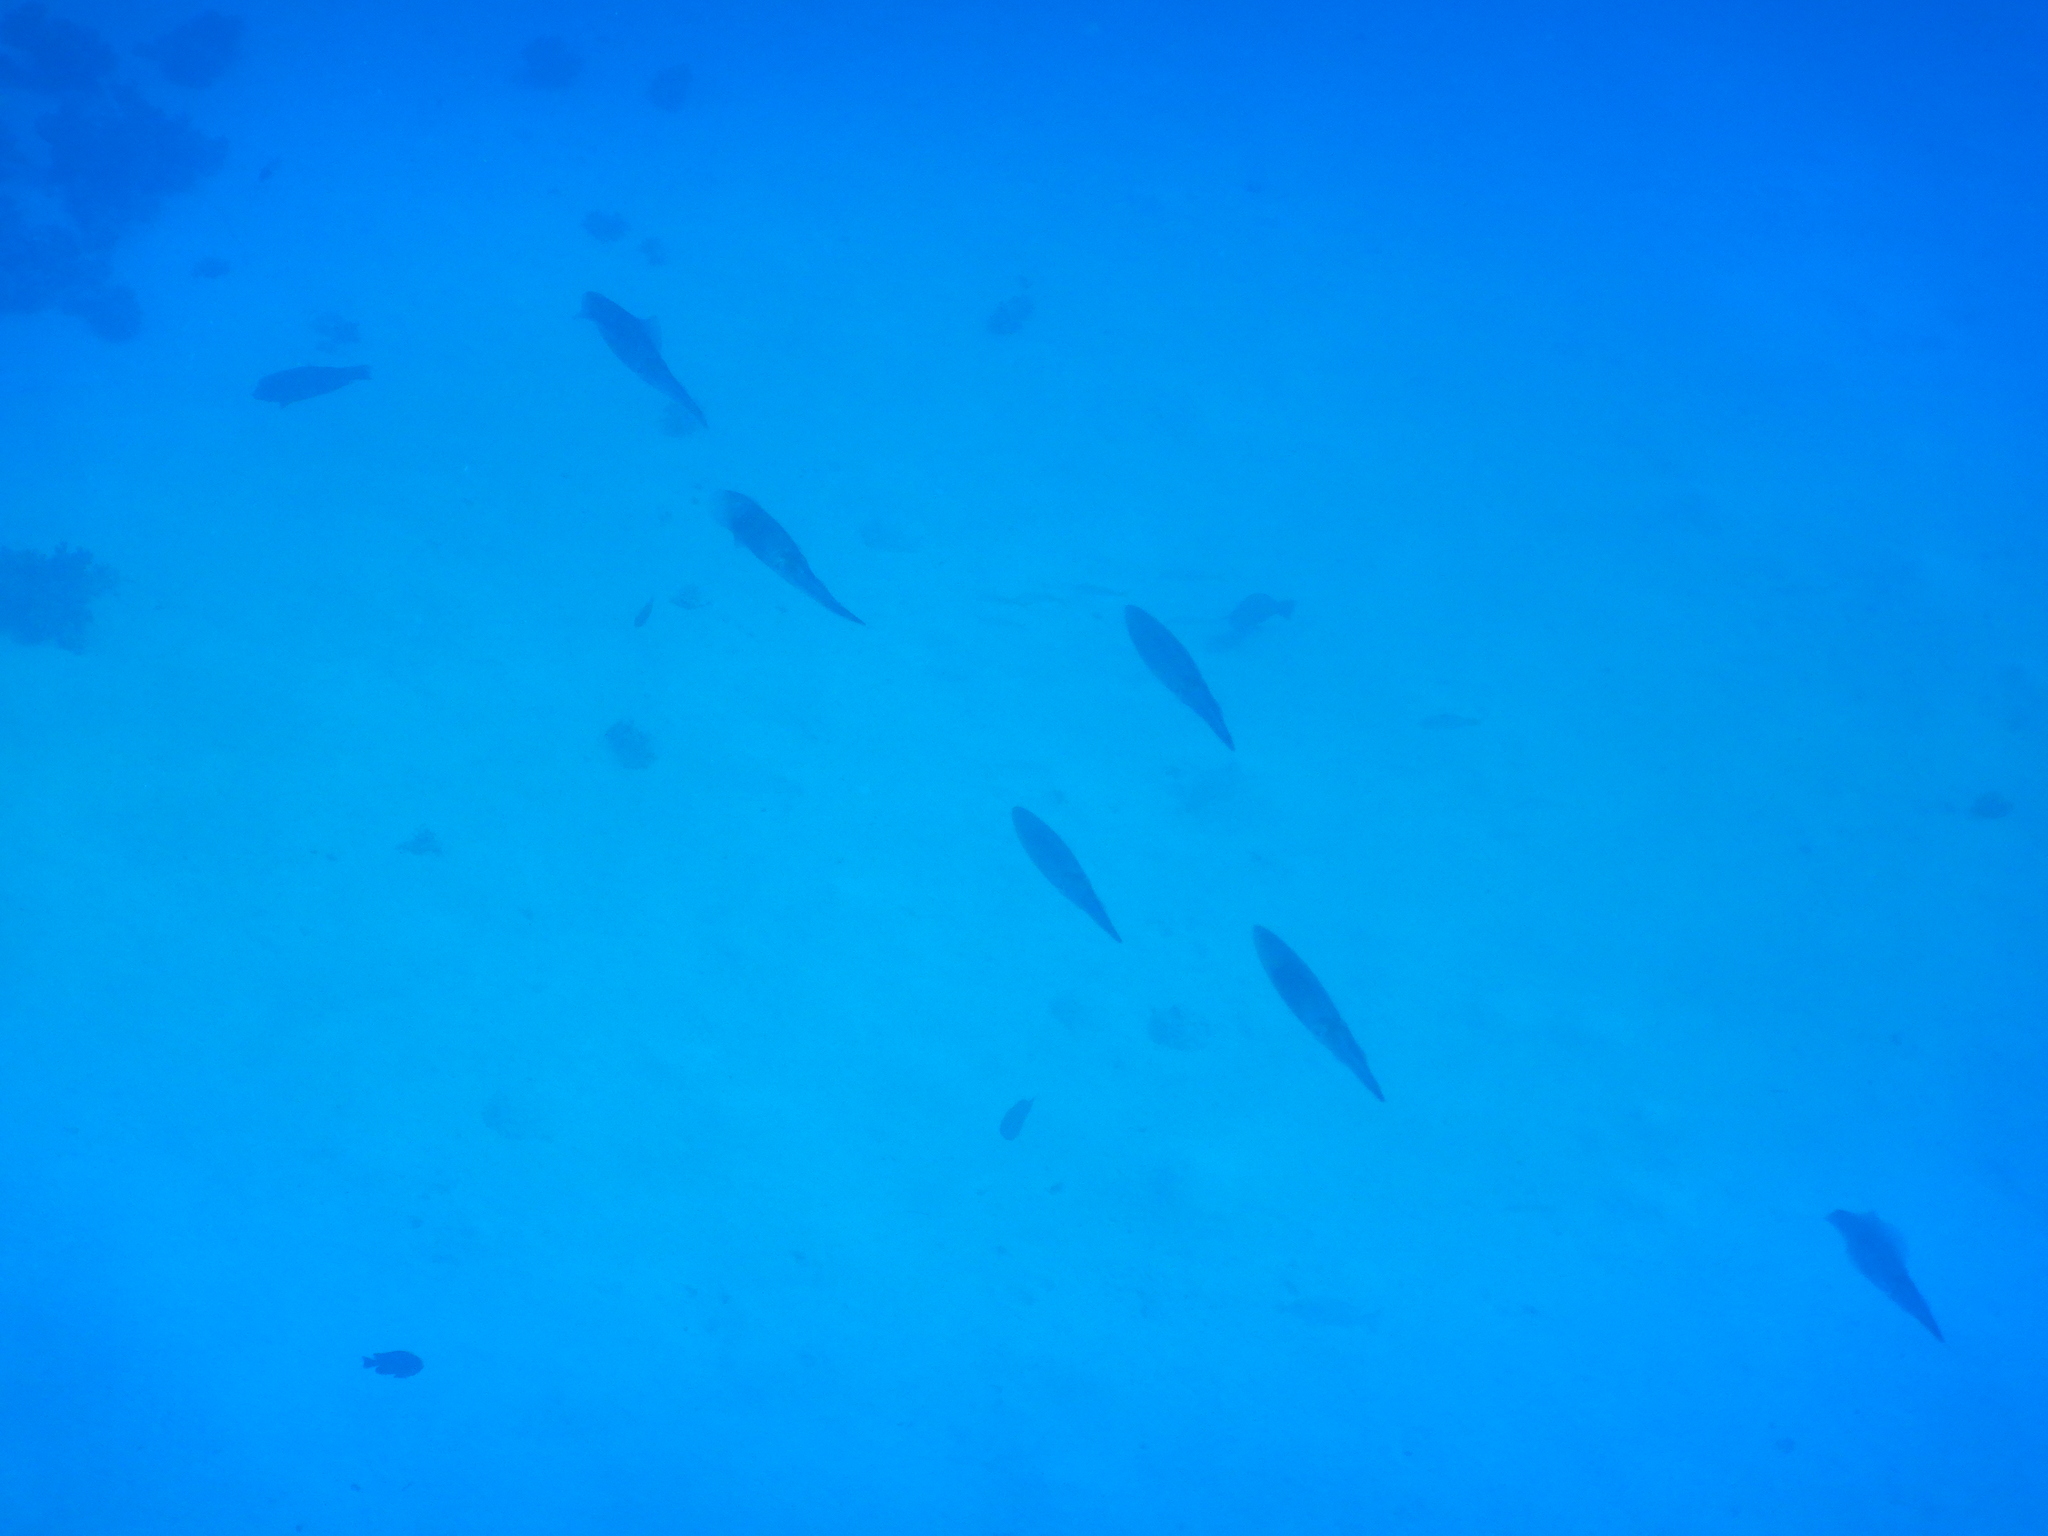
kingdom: Animalia
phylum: Mollusca
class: Cephalopoda
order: Myopsida
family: Loliginidae
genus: Sepioteuthis
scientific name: Sepioteuthis lessoniana
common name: Bigfin reef squid
